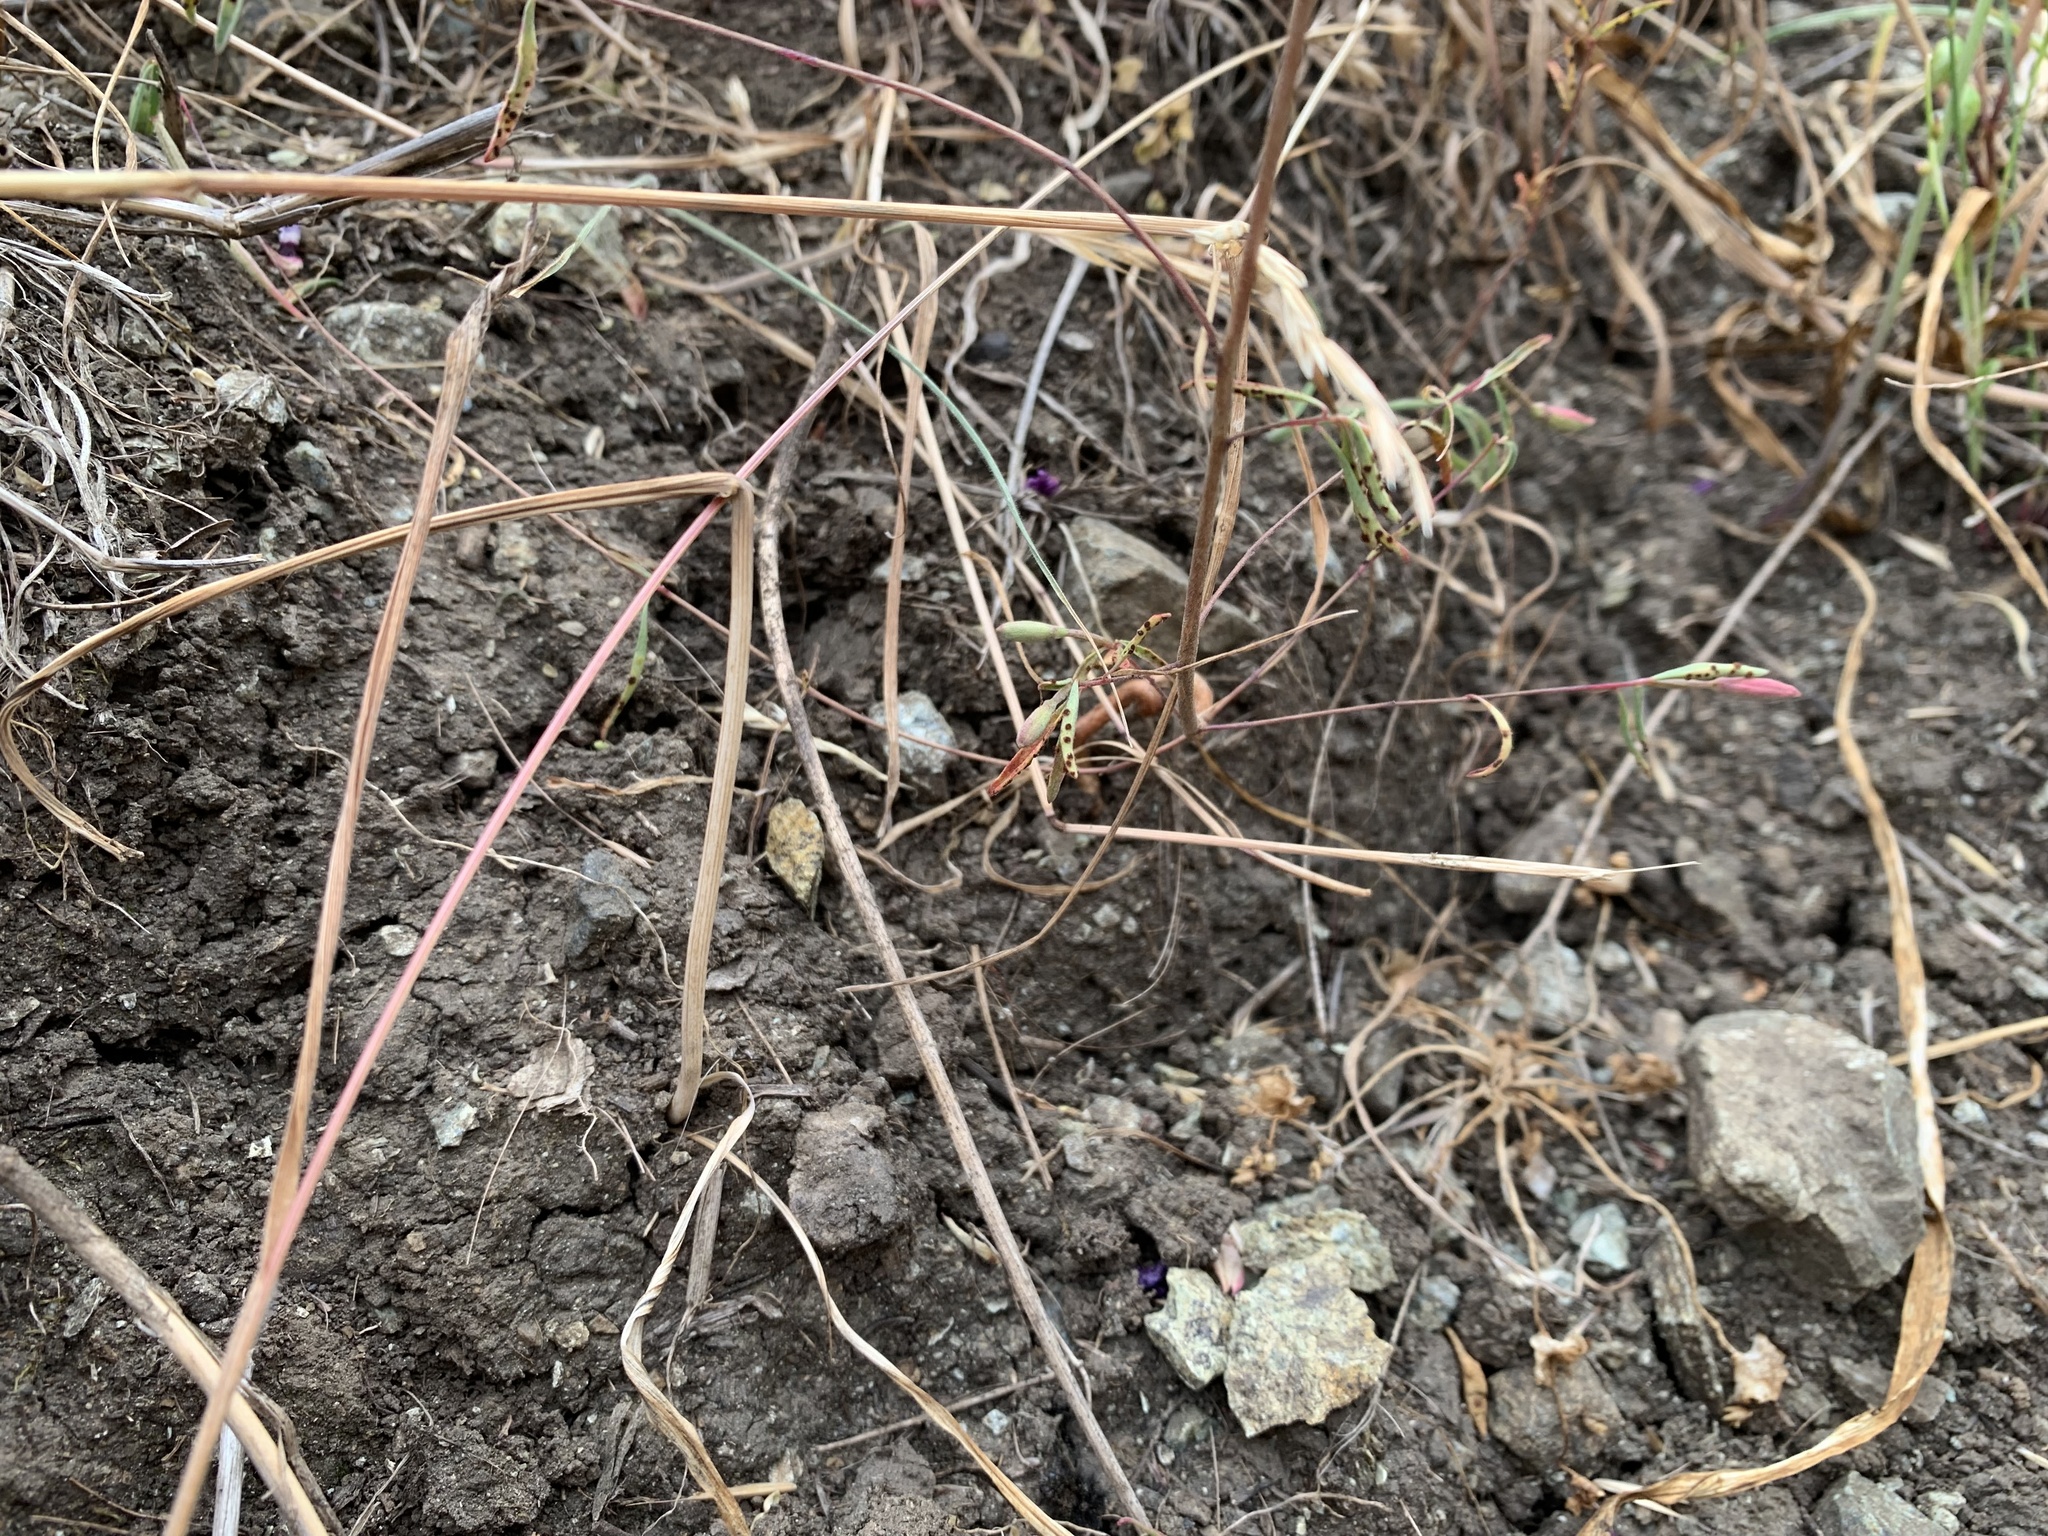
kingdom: Plantae
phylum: Tracheophyta
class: Magnoliopsida
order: Myrtales
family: Onagraceae
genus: Clarkia
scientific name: Clarkia franciscana
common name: Presidio clarkia
